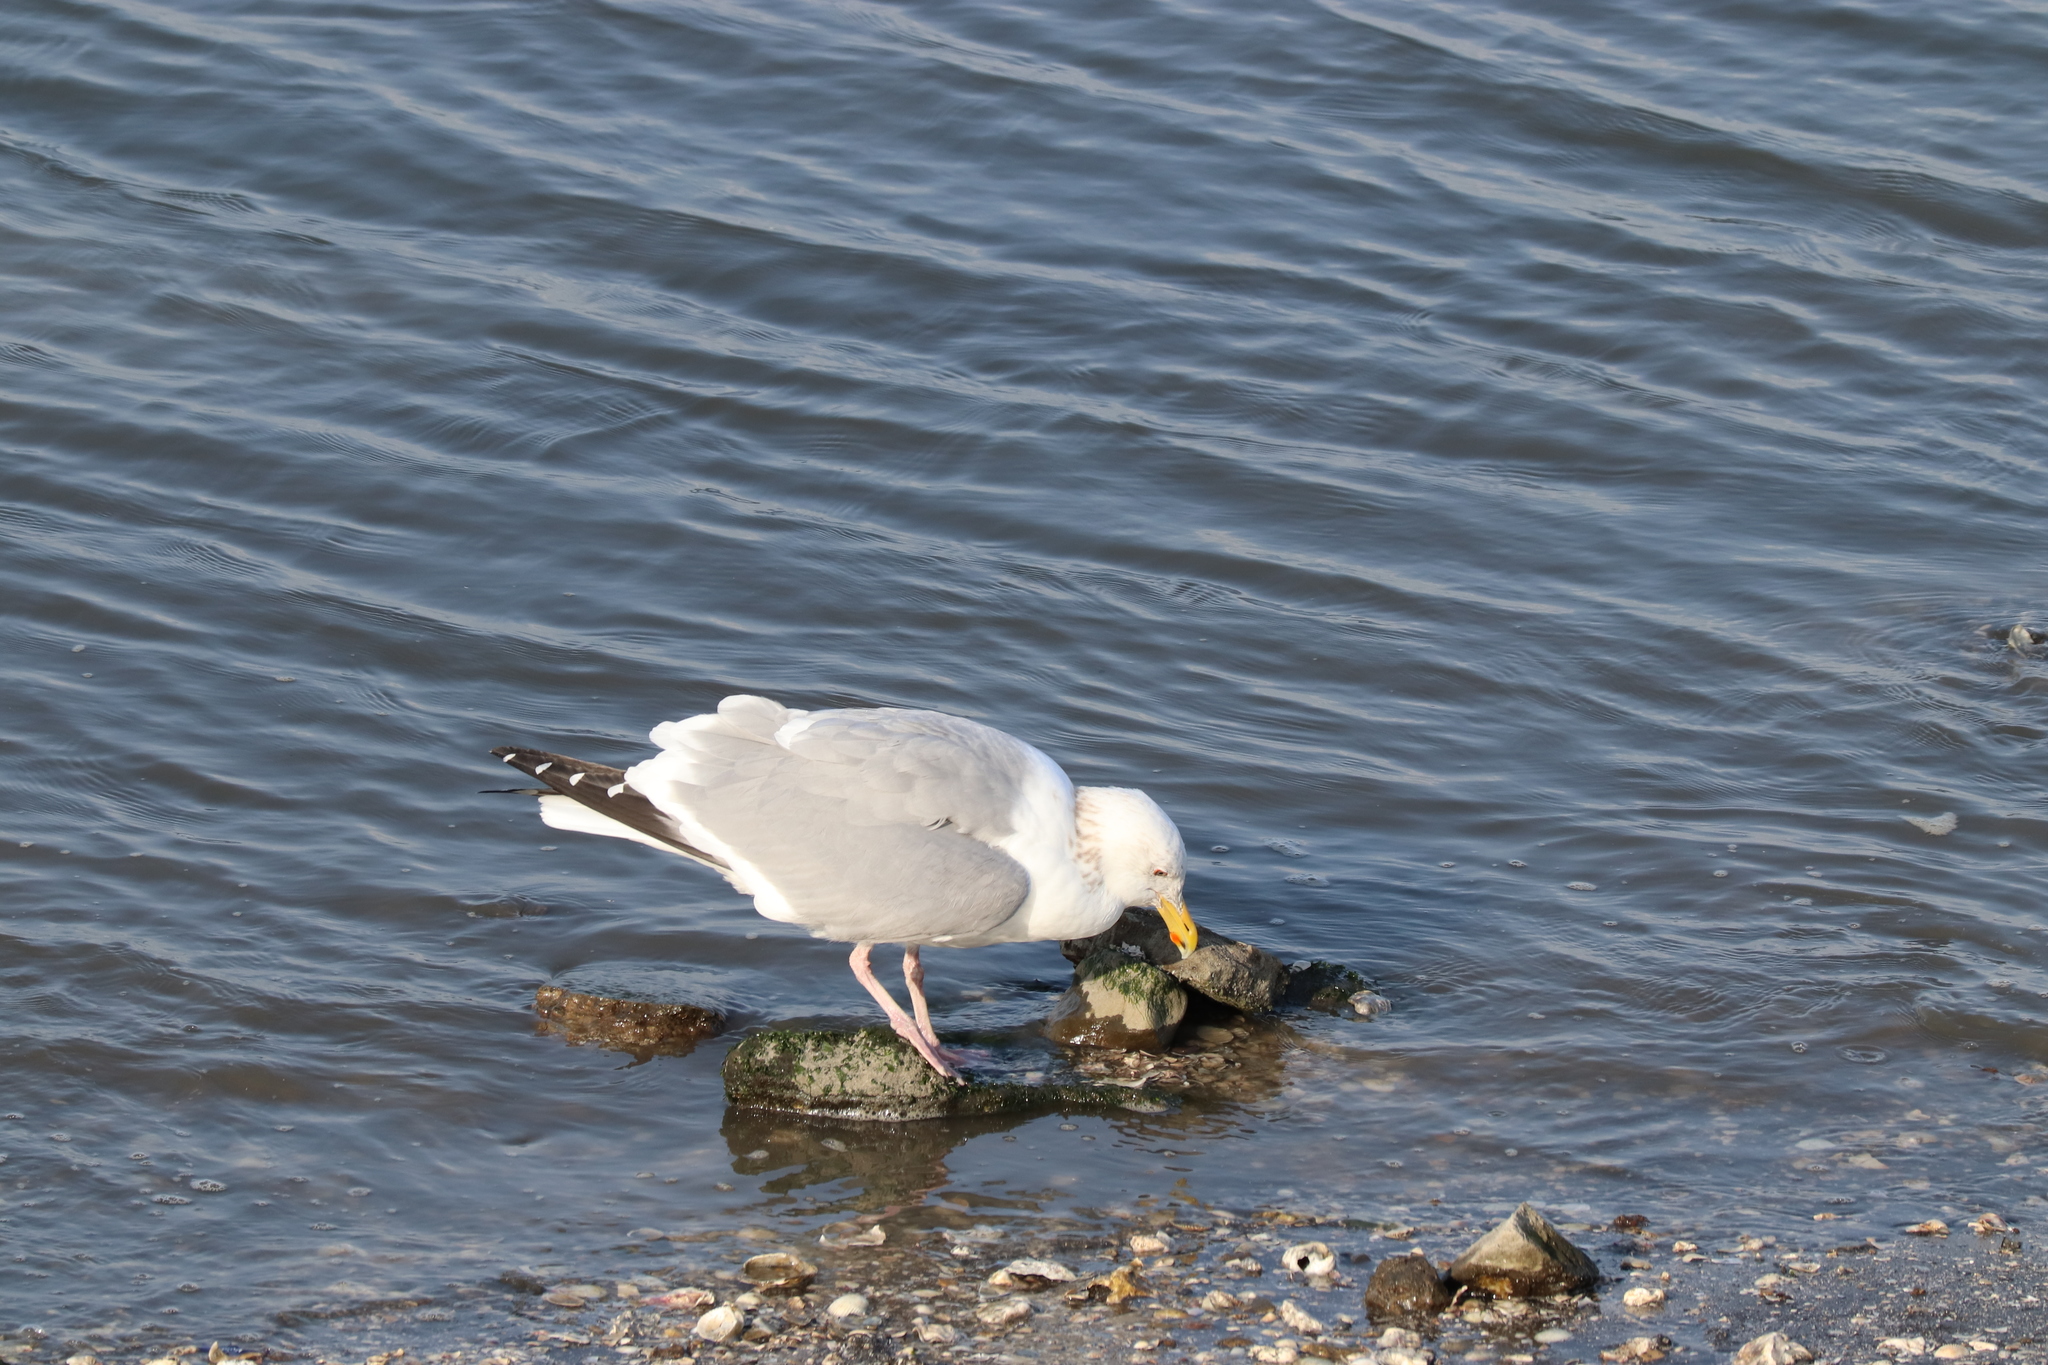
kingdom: Animalia
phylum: Chordata
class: Aves
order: Charadriiformes
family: Laridae
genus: Larus
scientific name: Larus argentatus
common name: Herring gull
